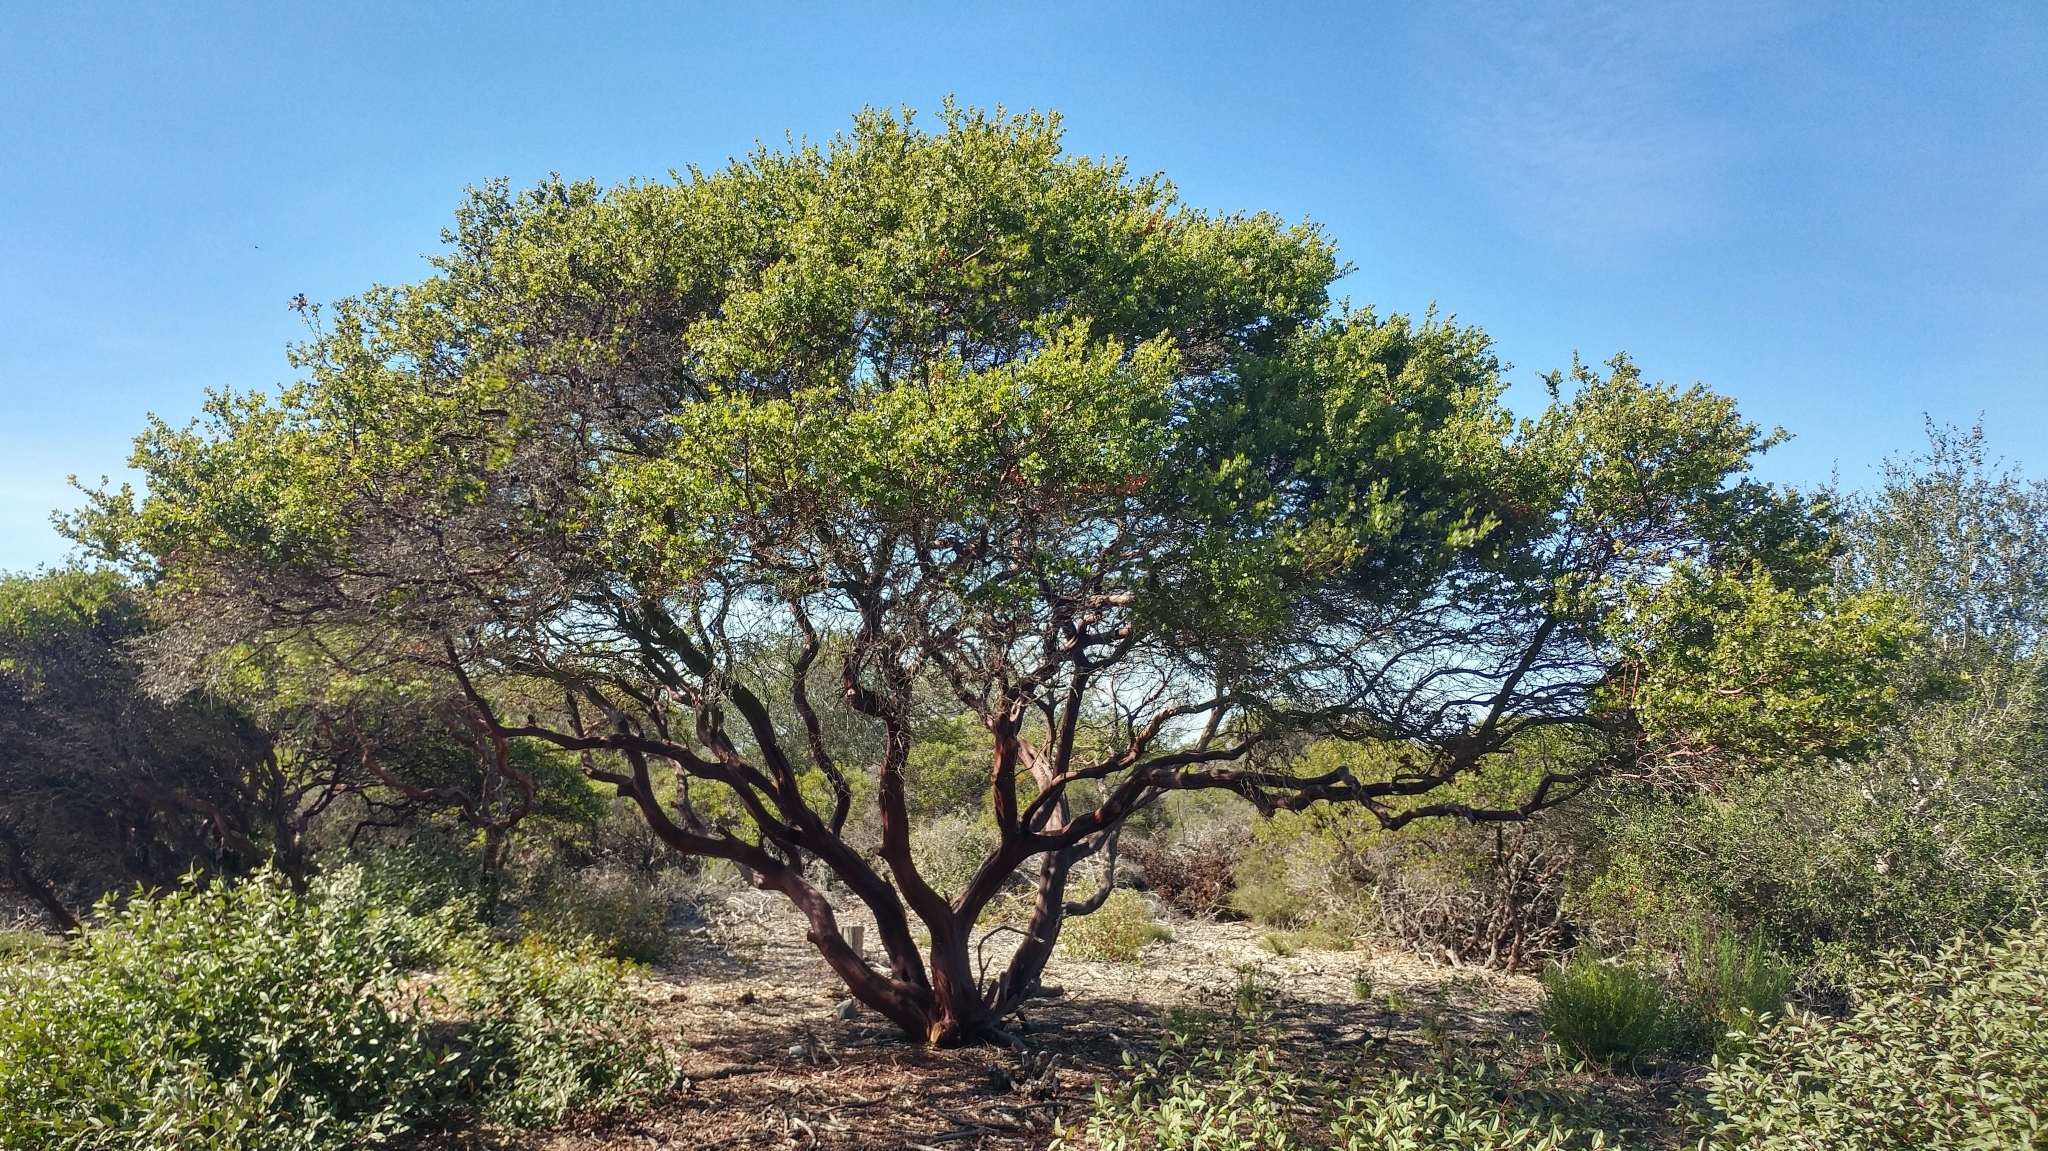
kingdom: Plantae
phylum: Tracheophyta
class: Magnoliopsida
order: Ericales
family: Ericaceae
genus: Arctostaphylos
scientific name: Arctostaphylos rudis
